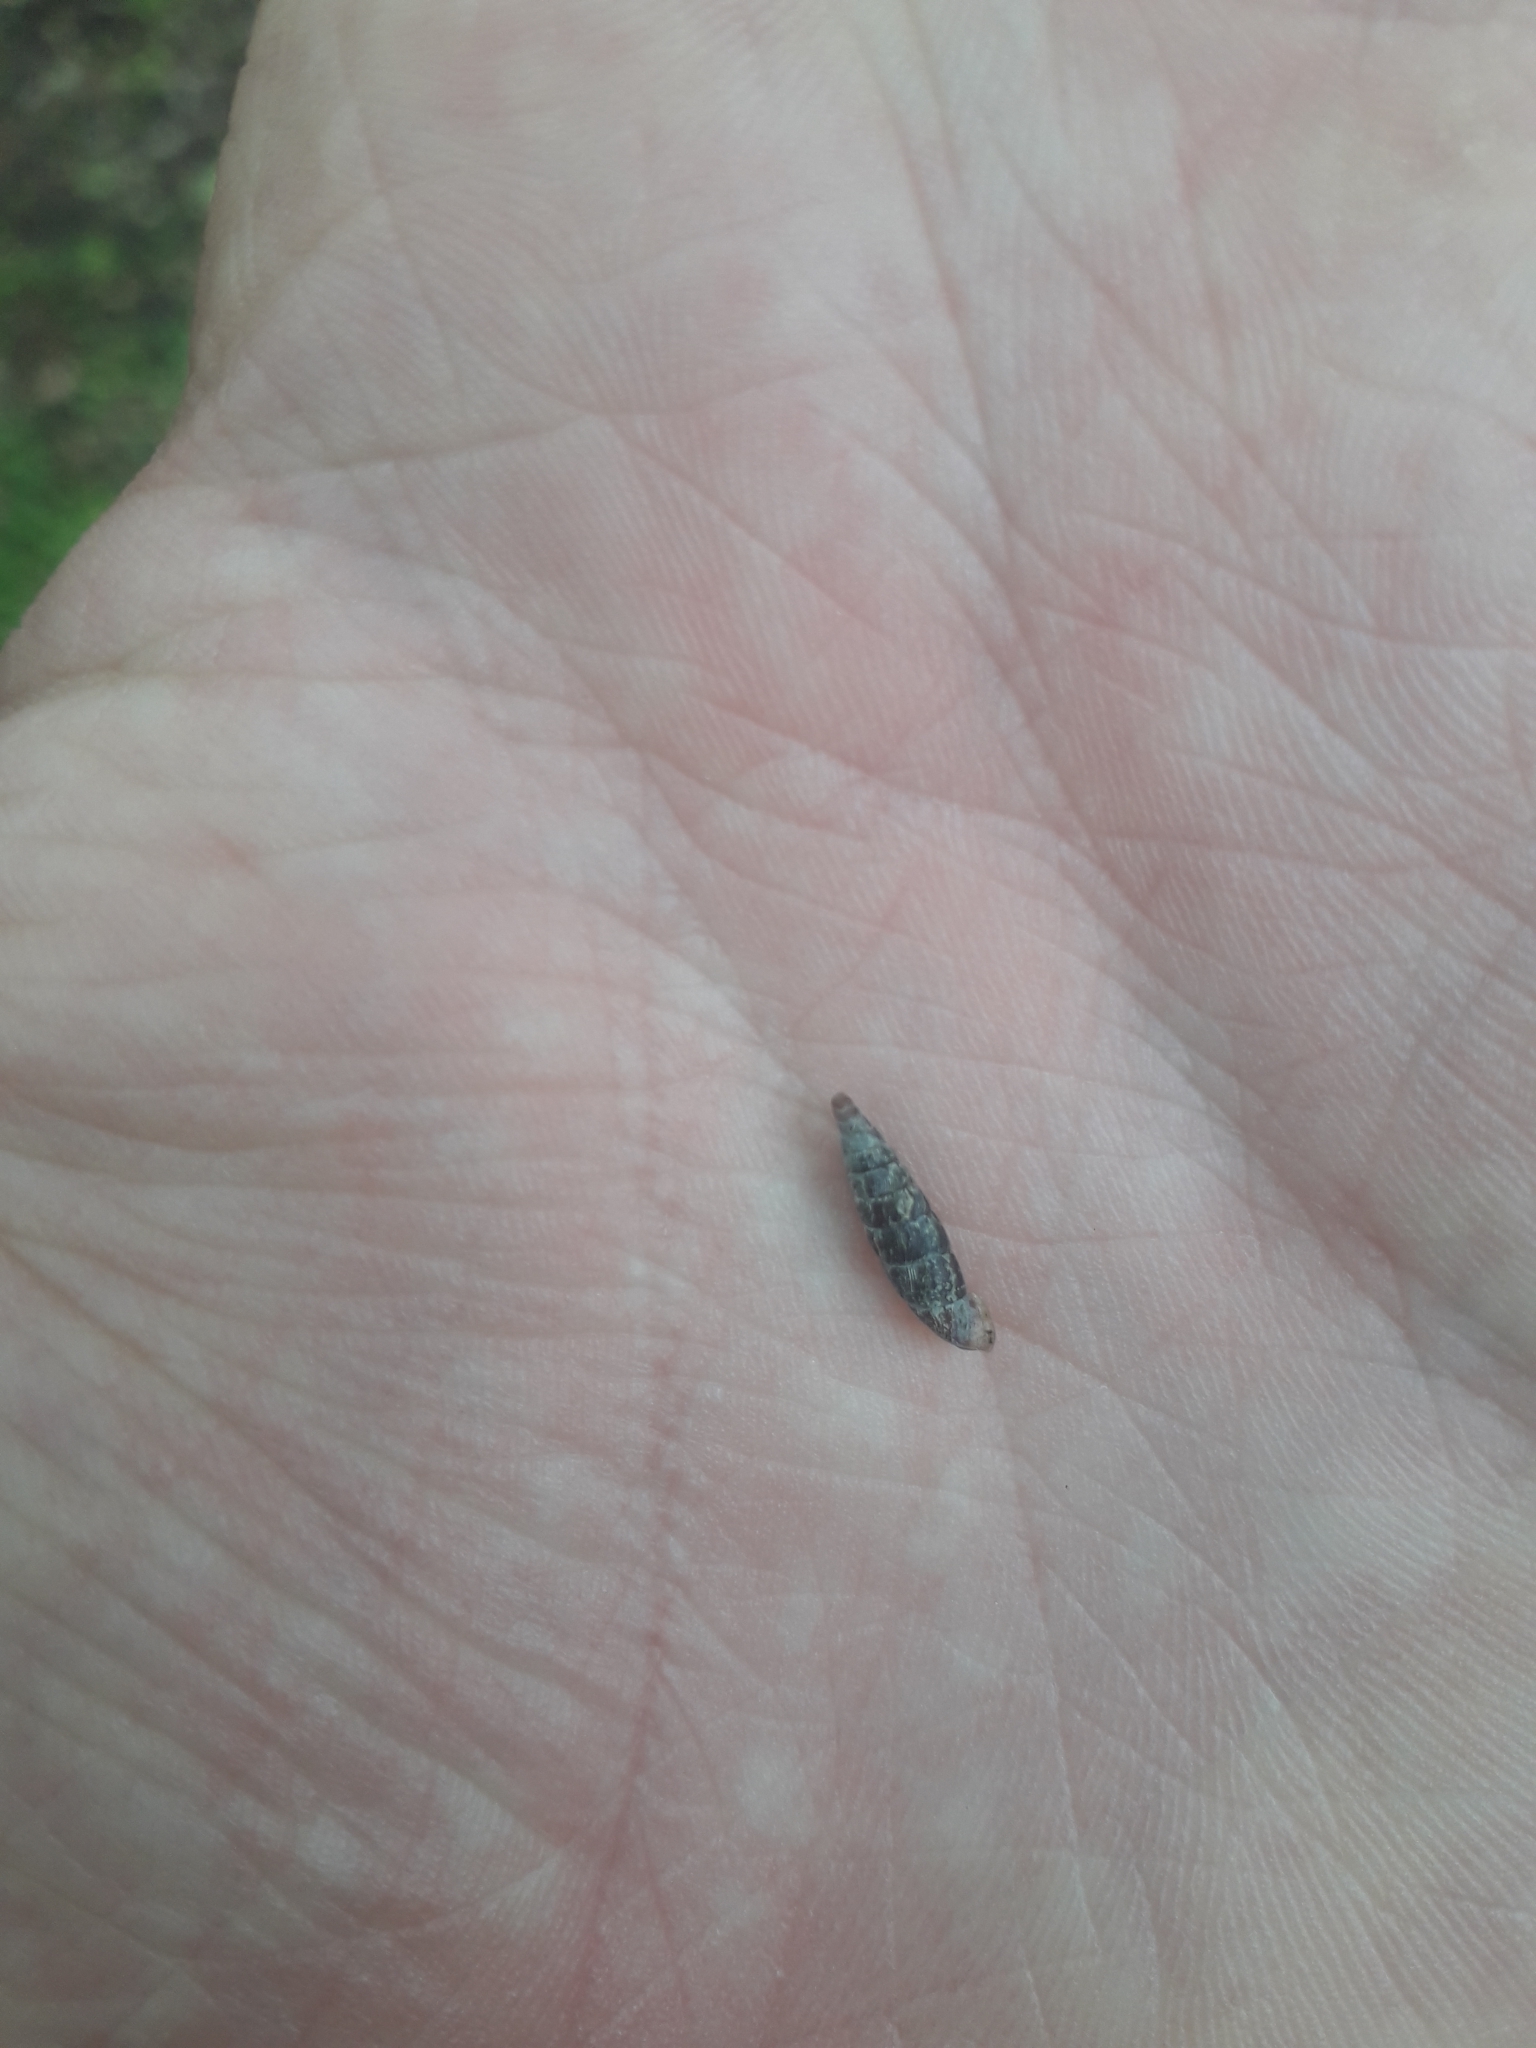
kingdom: Animalia
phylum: Mollusca
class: Gastropoda
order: Stylommatophora
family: Clausiliidae
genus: Clausilia
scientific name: Clausilia bidentata
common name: Two-toothed door snail
